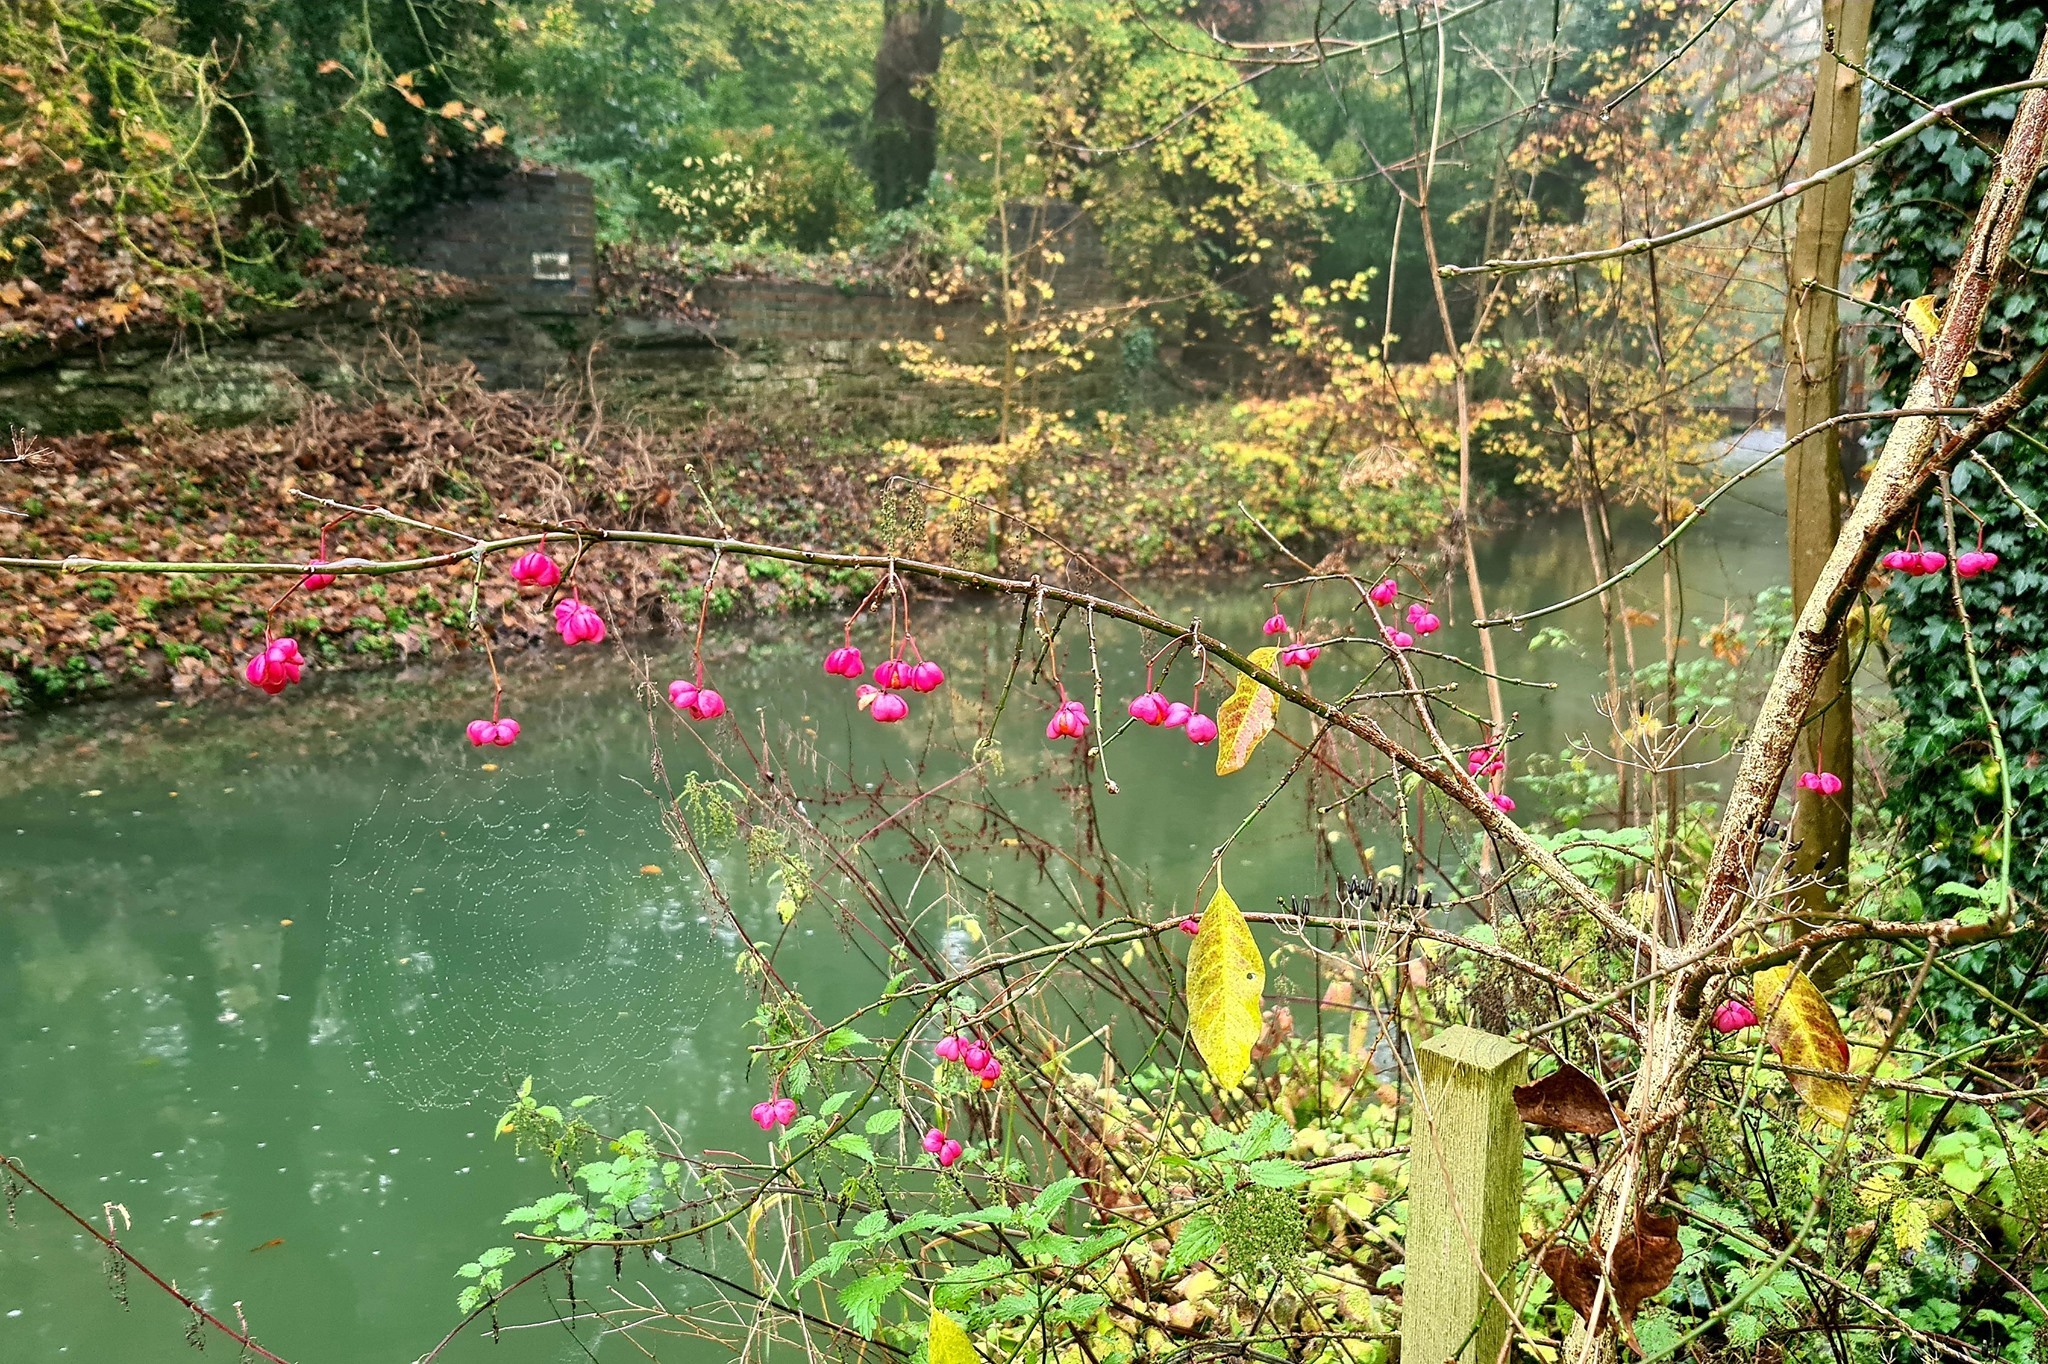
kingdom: Plantae
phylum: Tracheophyta
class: Magnoliopsida
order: Celastrales
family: Celastraceae
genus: Euonymus
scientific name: Euonymus europaeus
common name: Spindle
